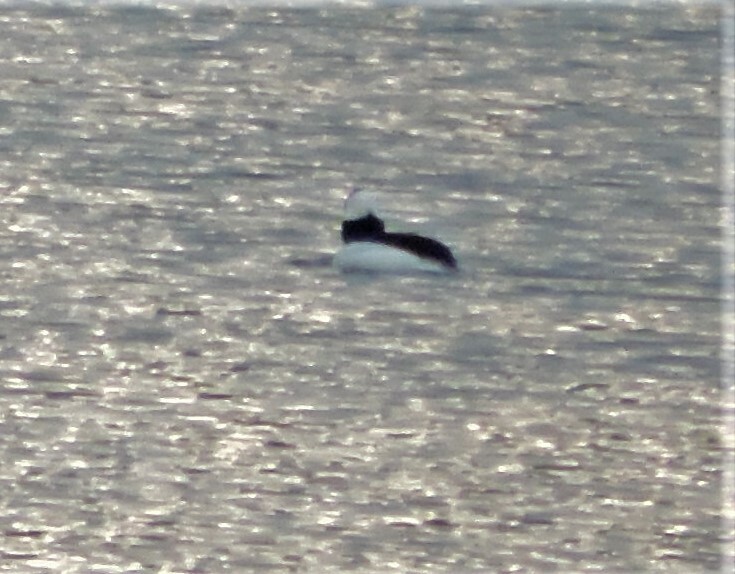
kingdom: Animalia
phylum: Chordata
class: Aves
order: Anseriformes
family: Anatidae
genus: Bucephala
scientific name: Bucephala albeola
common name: Bufflehead
